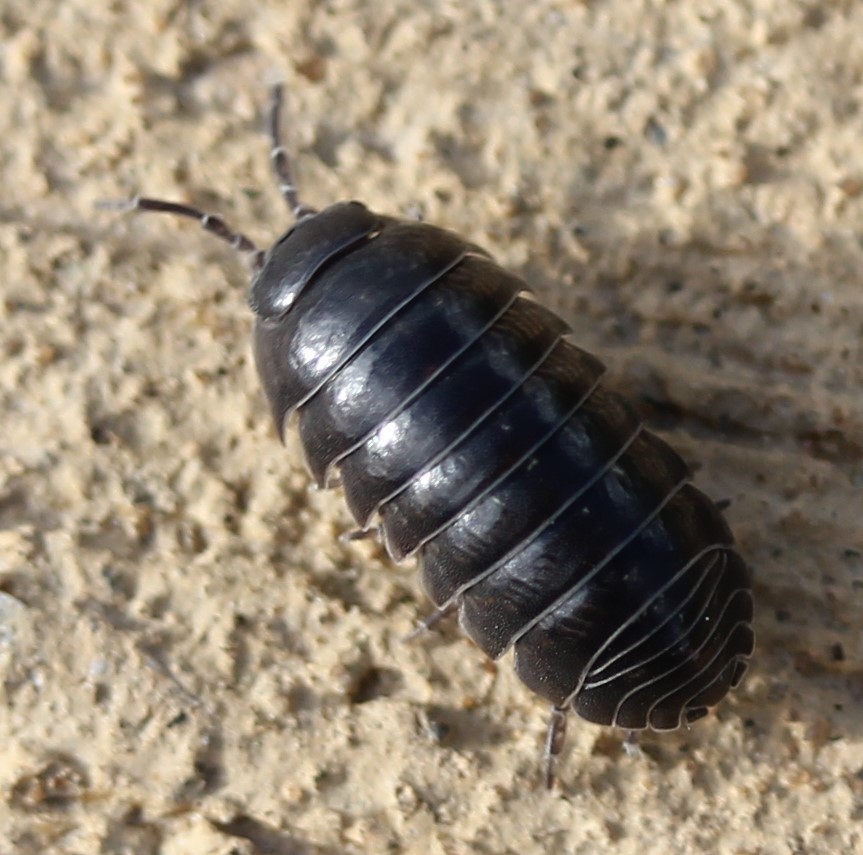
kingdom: Animalia
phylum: Arthropoda
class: Malacostraca
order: Isopoda
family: Armadillidiidae
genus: Armadillidium
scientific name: Armadillidium vulgare
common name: Common pill woodlouse
